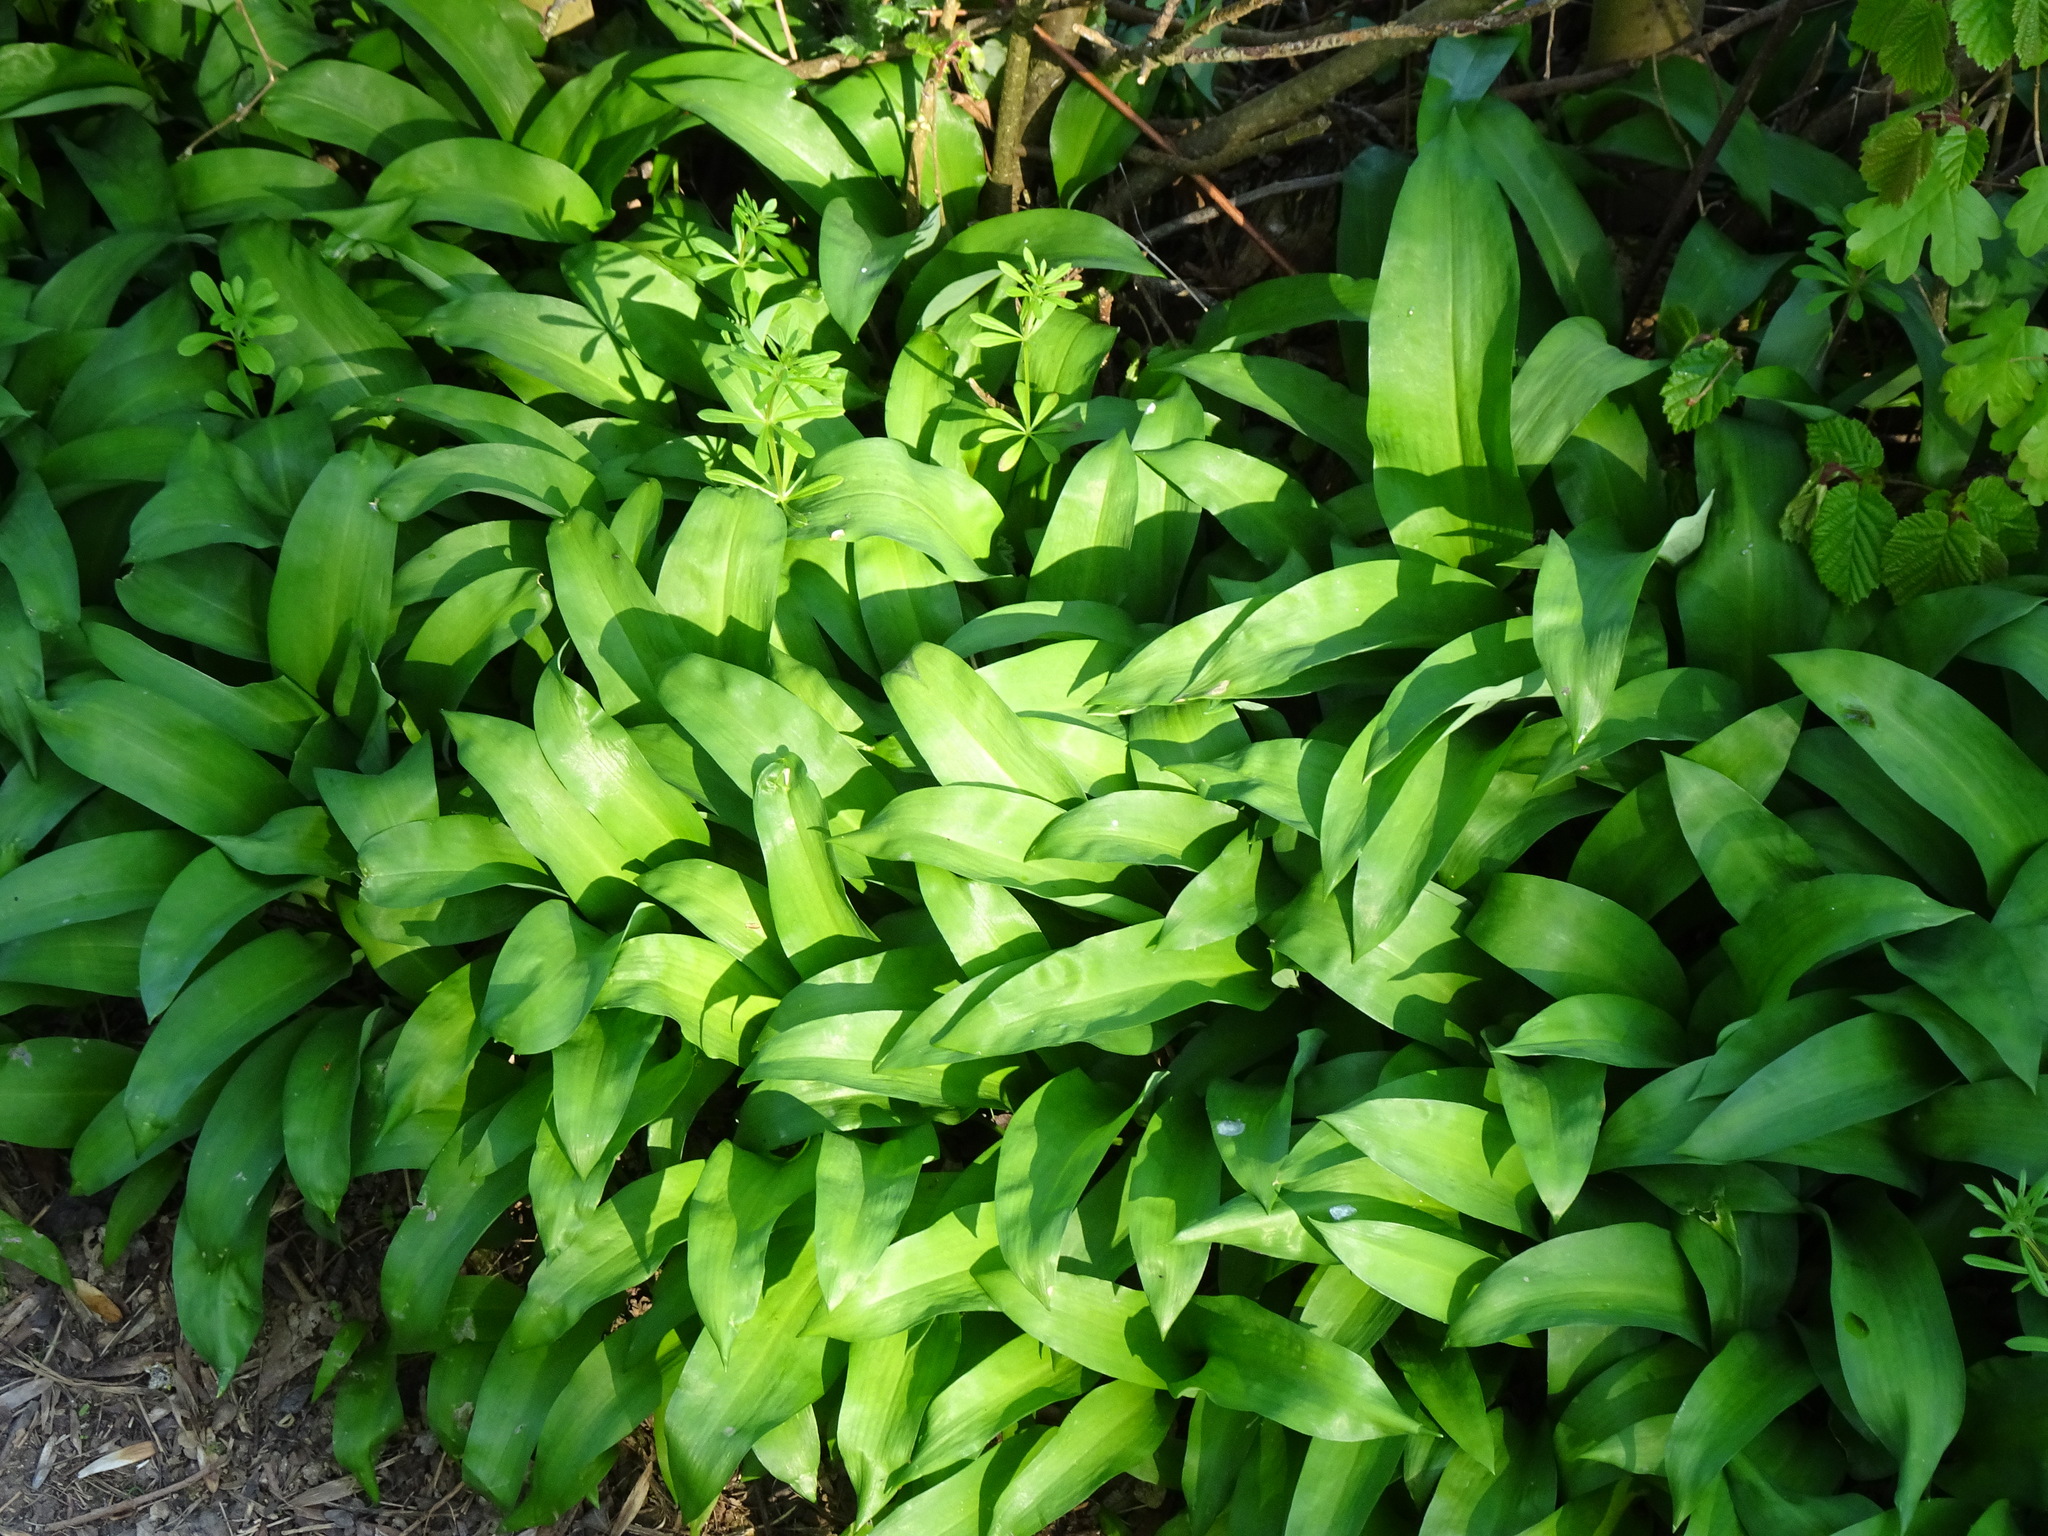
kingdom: Plantae
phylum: Tracheophyta
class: Liliopsida
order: Asparagales
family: Amaryllidaceae
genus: Allium
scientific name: Allium ursinum
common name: Ramsons
